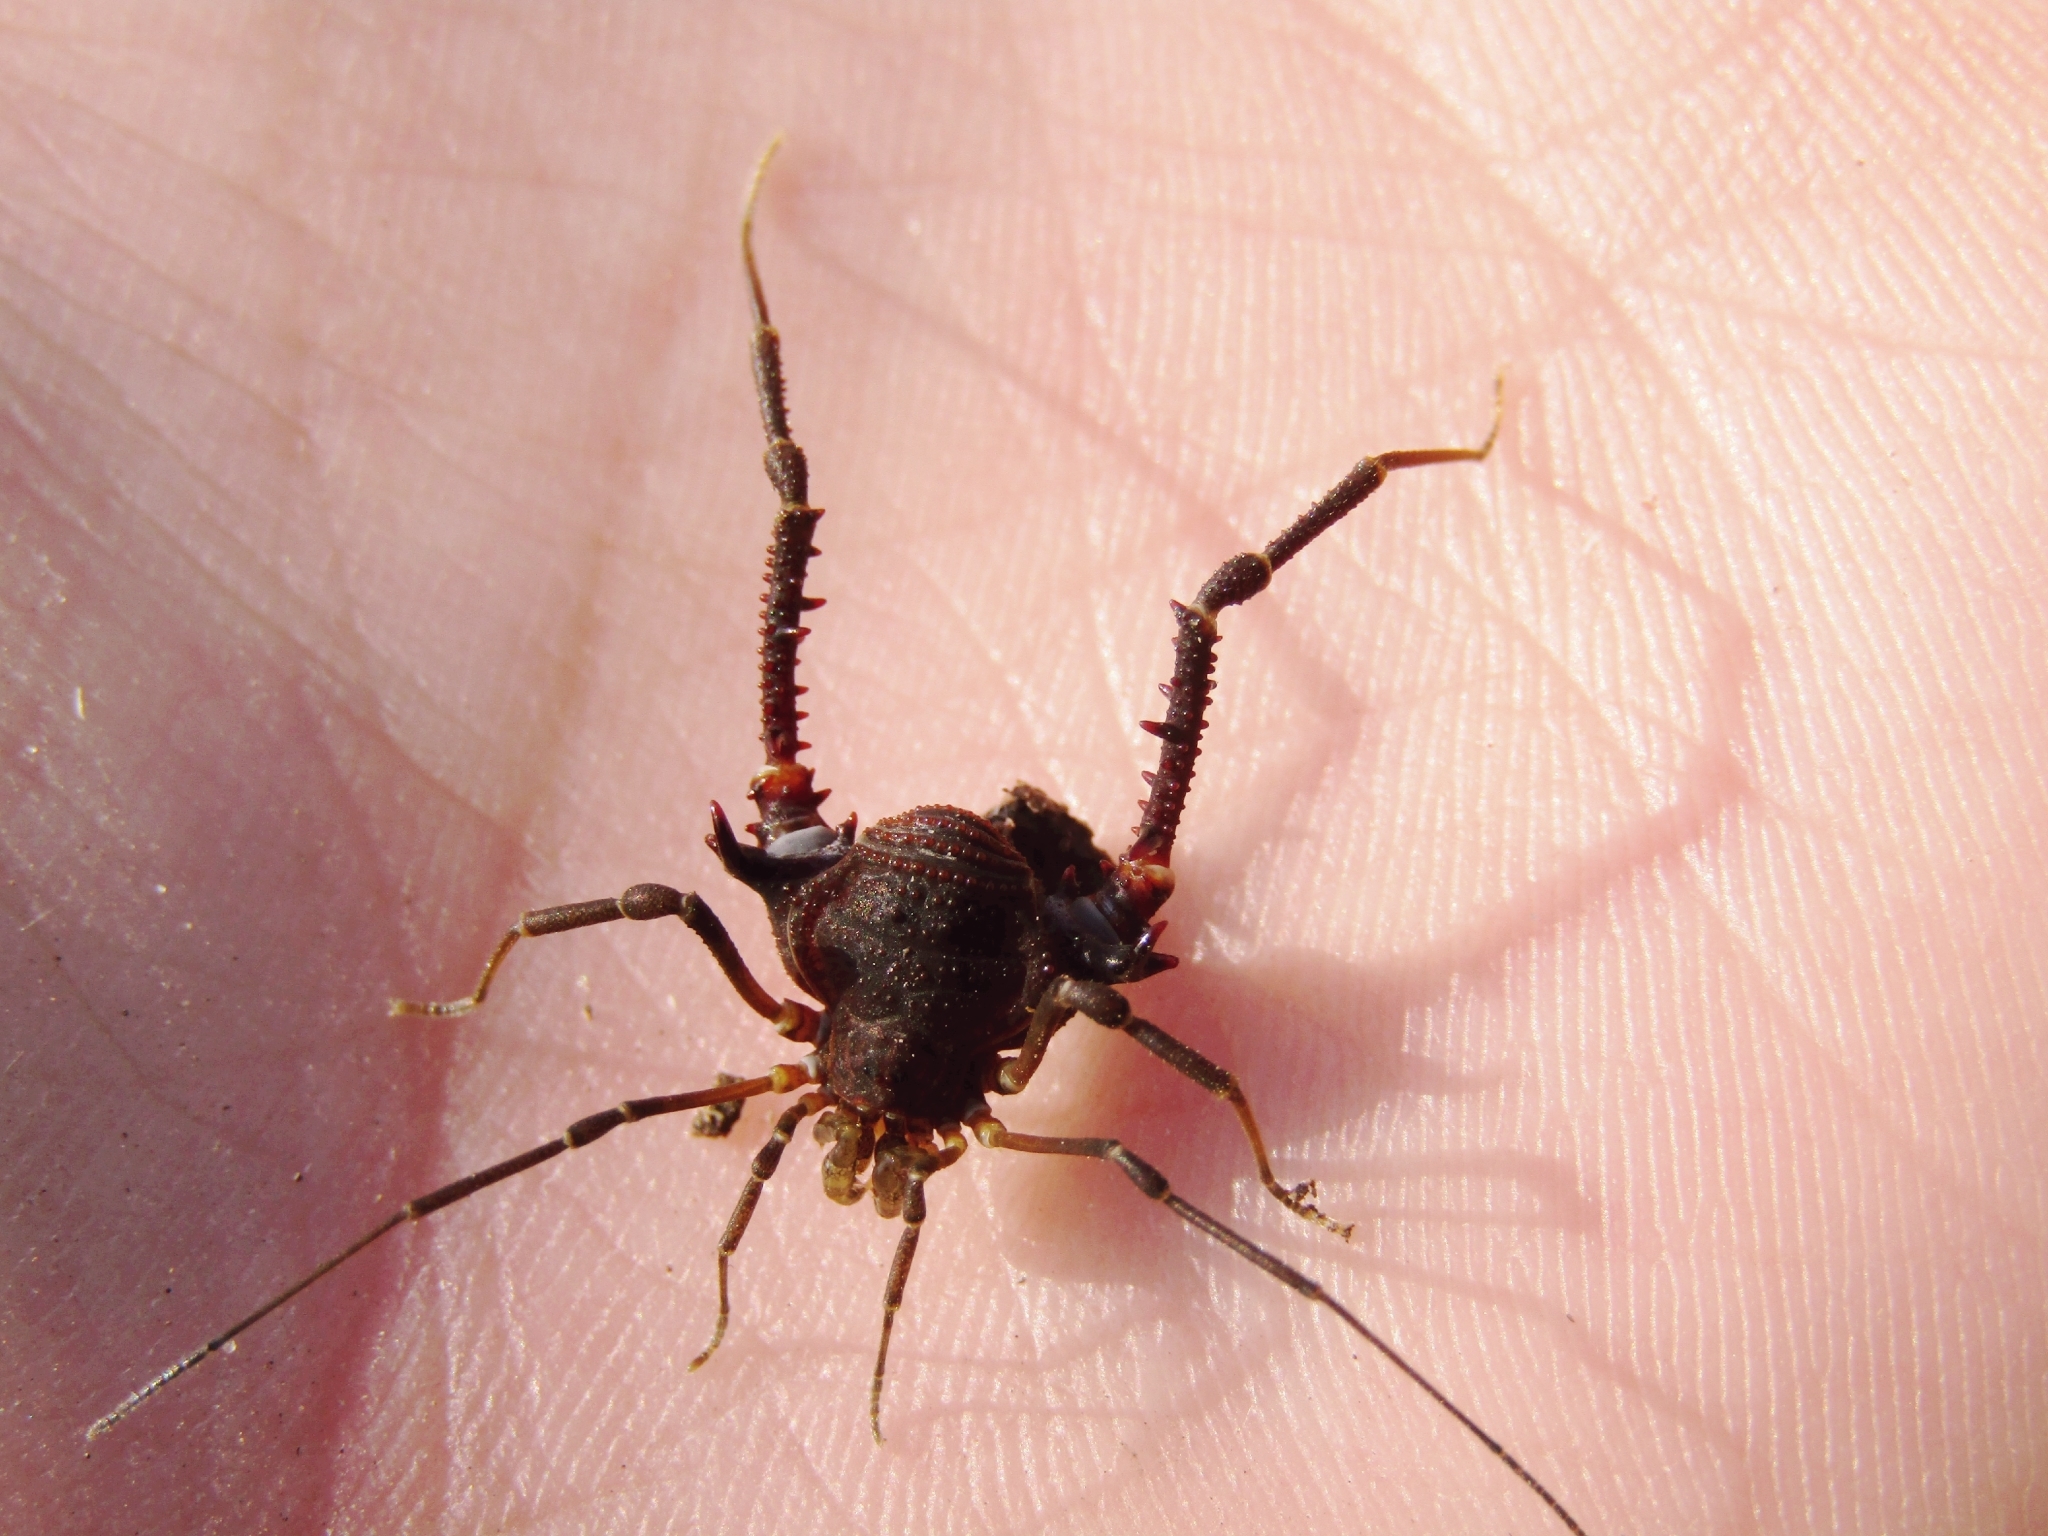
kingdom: Animalia
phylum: Arthropoda
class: Arachnida
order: Opiliones
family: Gonyleptidae
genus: Opisthoplatus
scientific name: Opisthoplatus prospicuus
